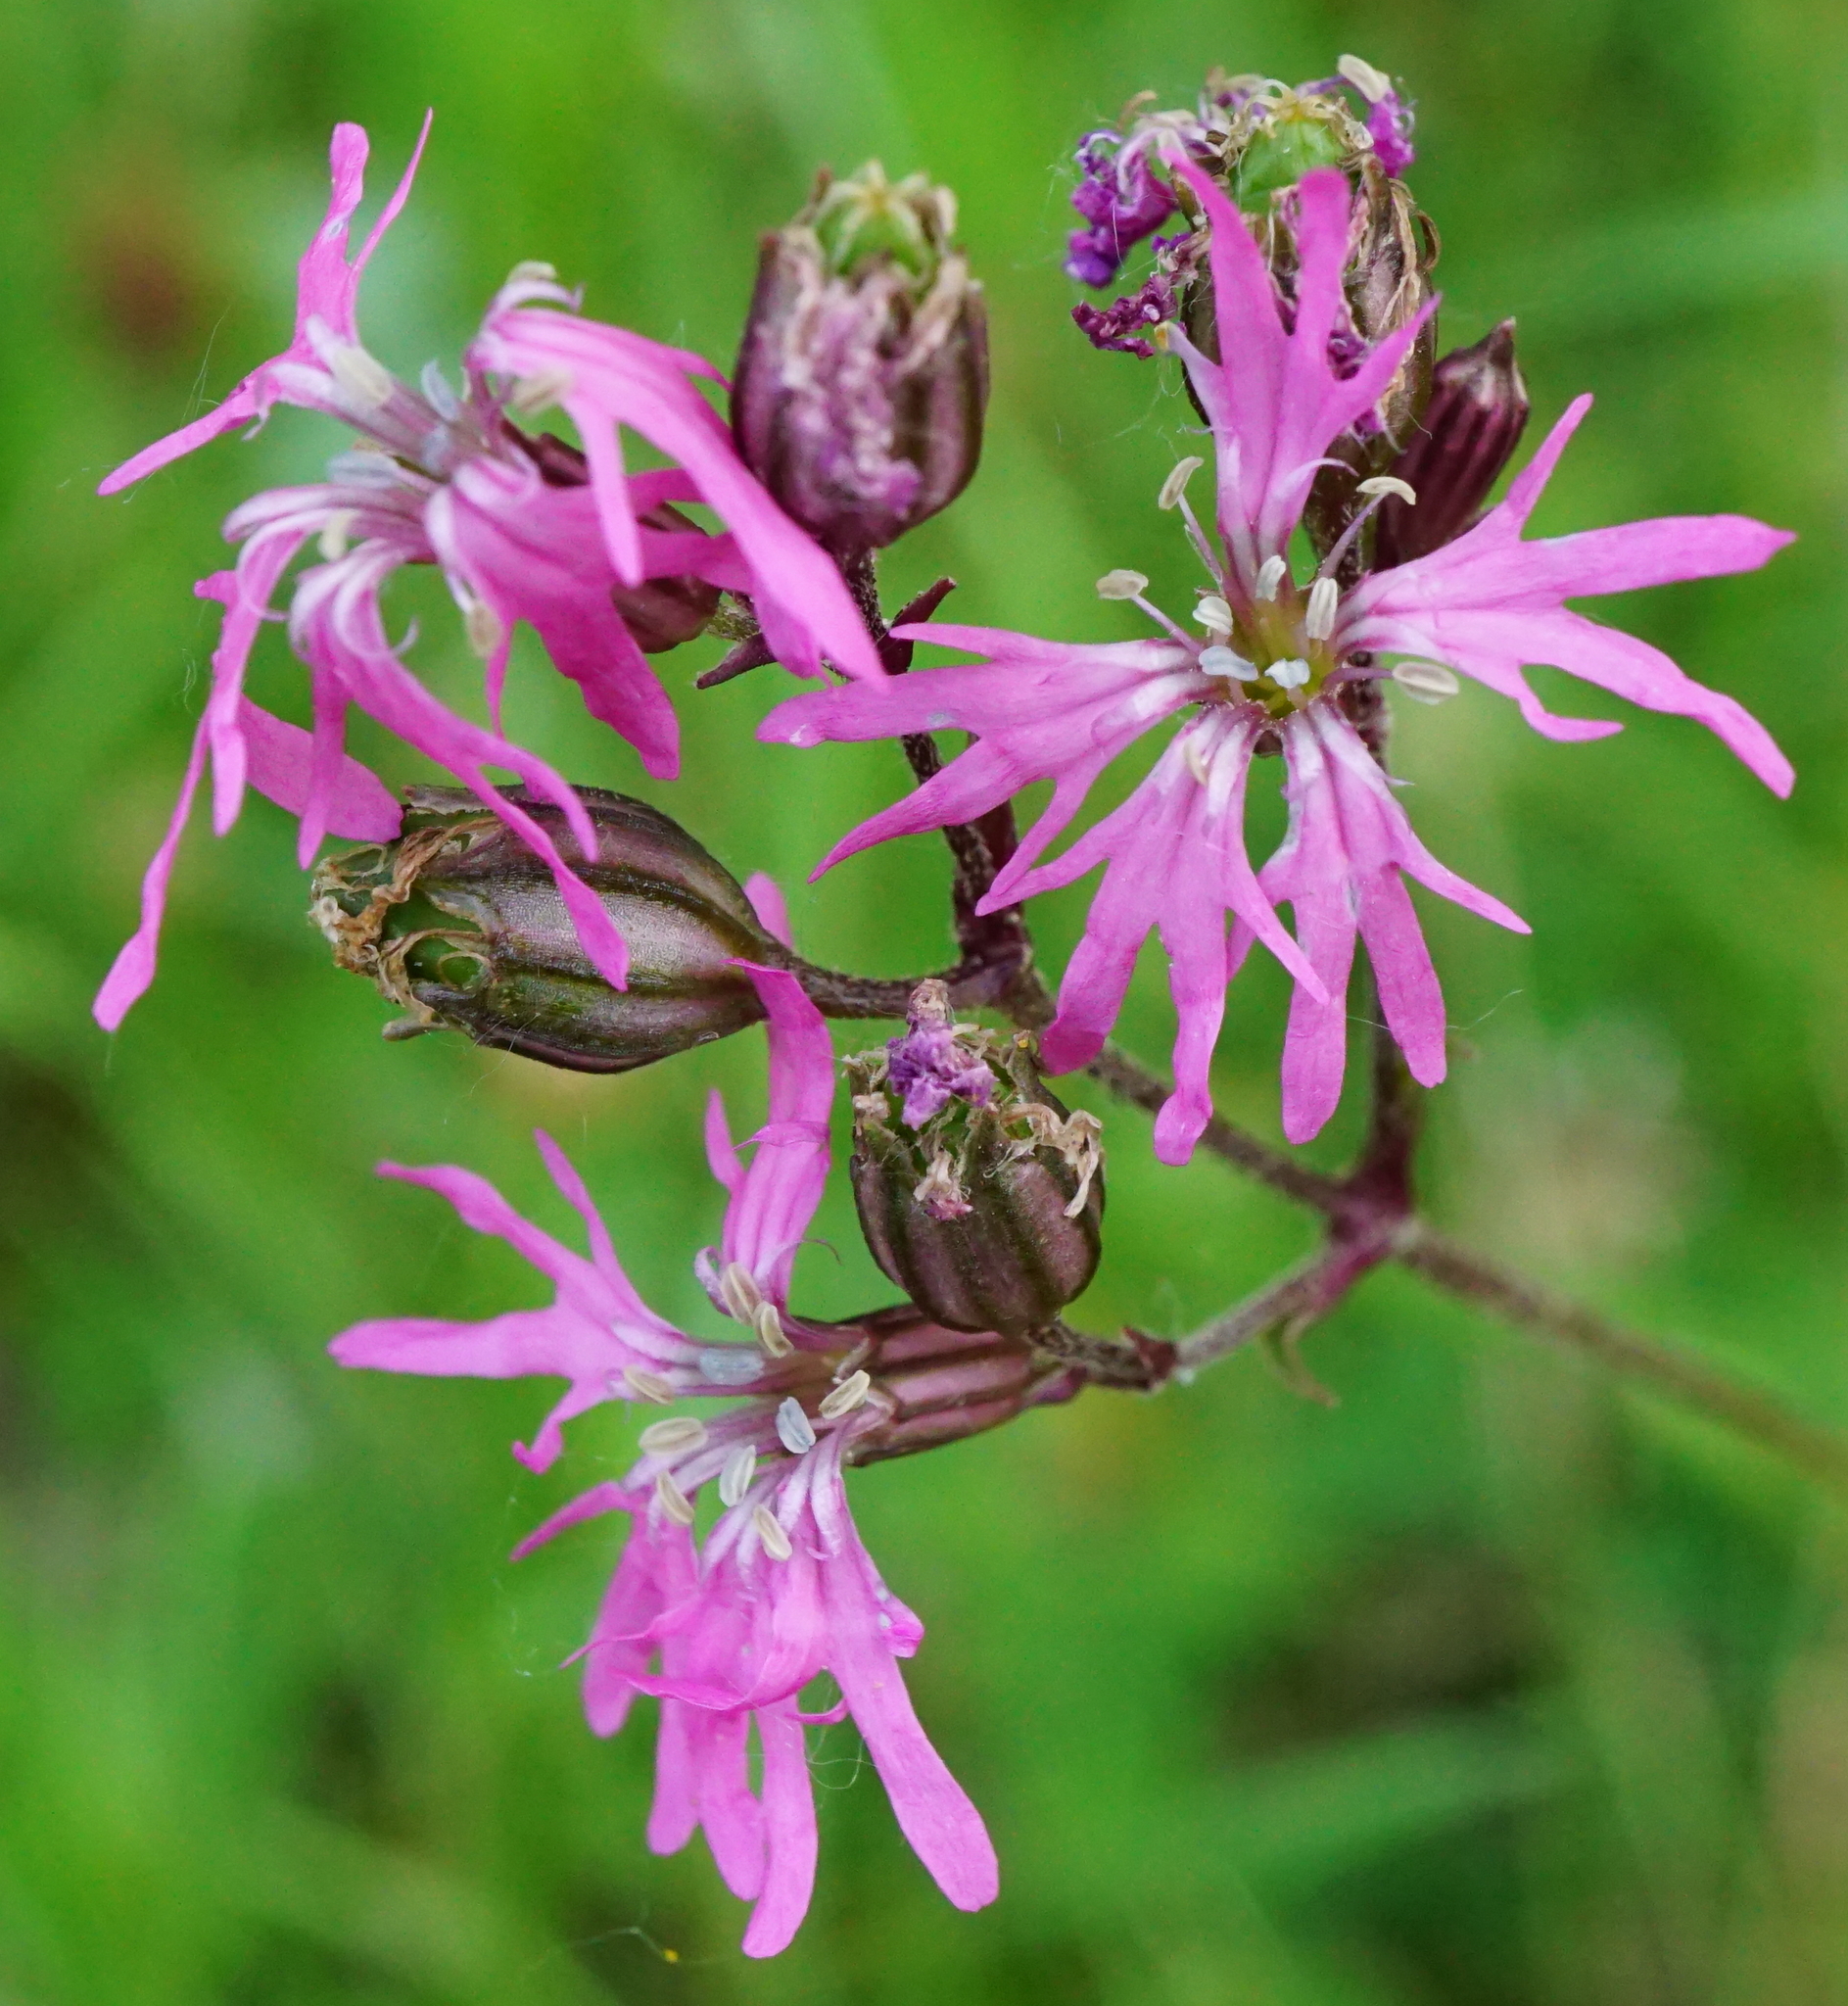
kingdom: Plantae
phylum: Tracheophyta
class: Magnoliopsida
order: Caryophyllales
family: Caryophyllaceae
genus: Silene
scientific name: Silene flos-cuculi
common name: Ragged-robin
